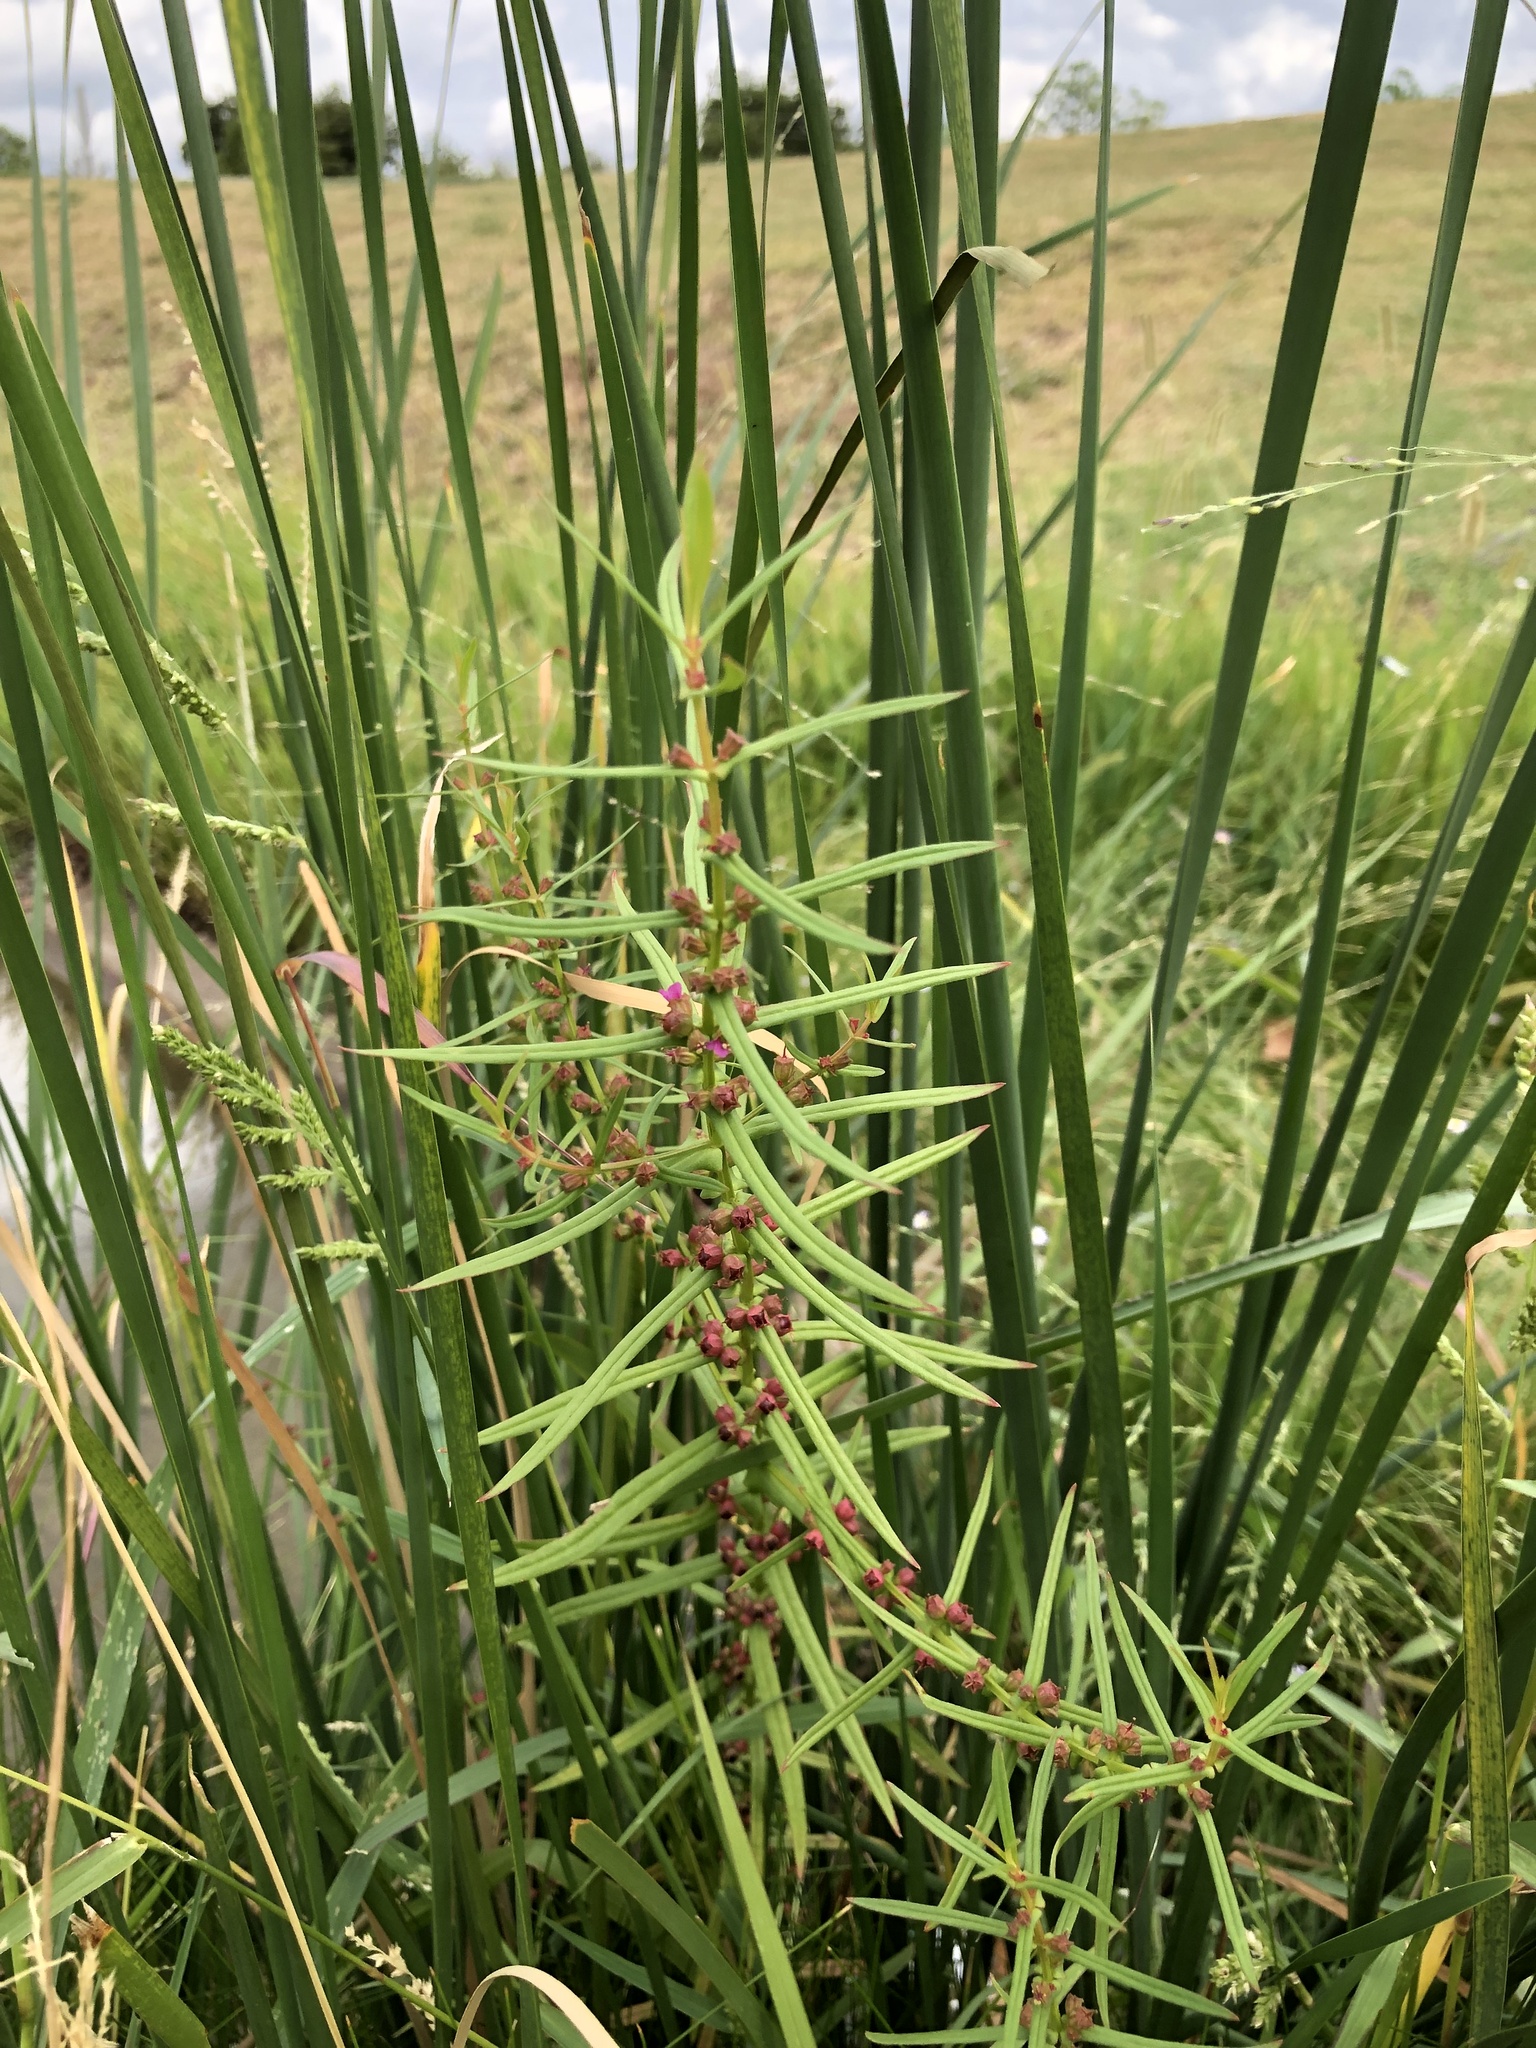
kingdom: Plantae
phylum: Tracheophyta
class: Magnoliopsida
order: Myrtales
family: Lythraceae
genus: Ammannia
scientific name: Ammannia coccinea
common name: Valley redstem
